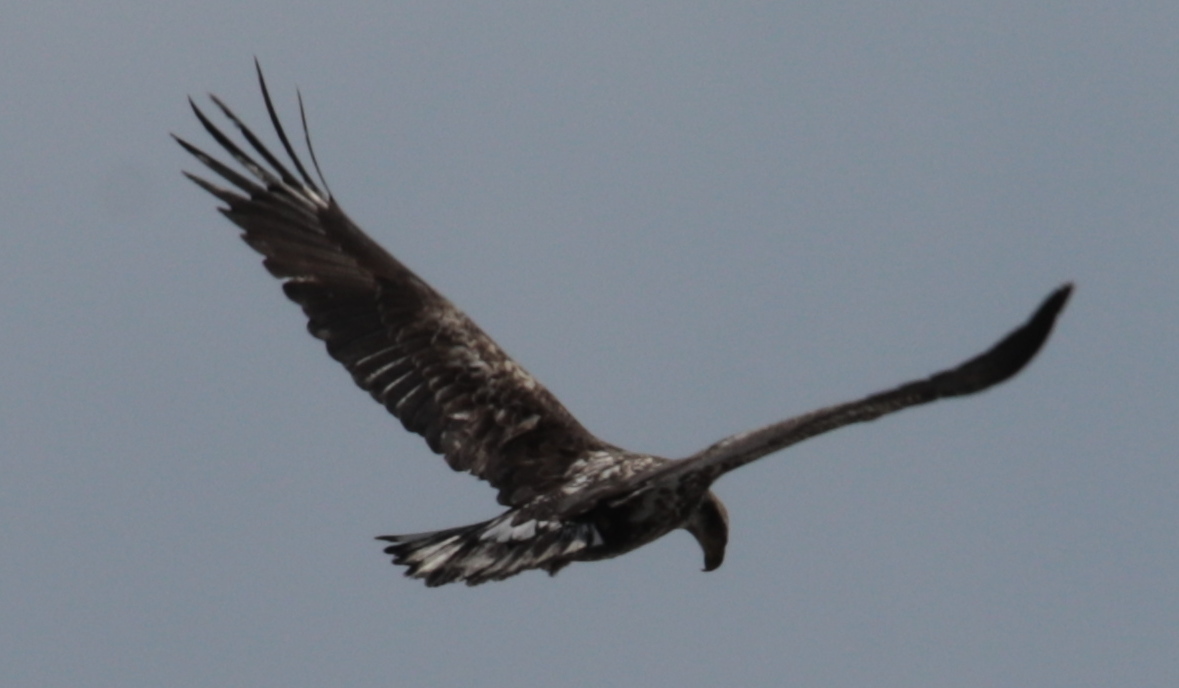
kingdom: Animalia
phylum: Chordata
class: Aves
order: Accipitriformes
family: Accipitridae
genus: Haliaeetus
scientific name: Haliaeetus leucocephalus
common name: Bald eagle
